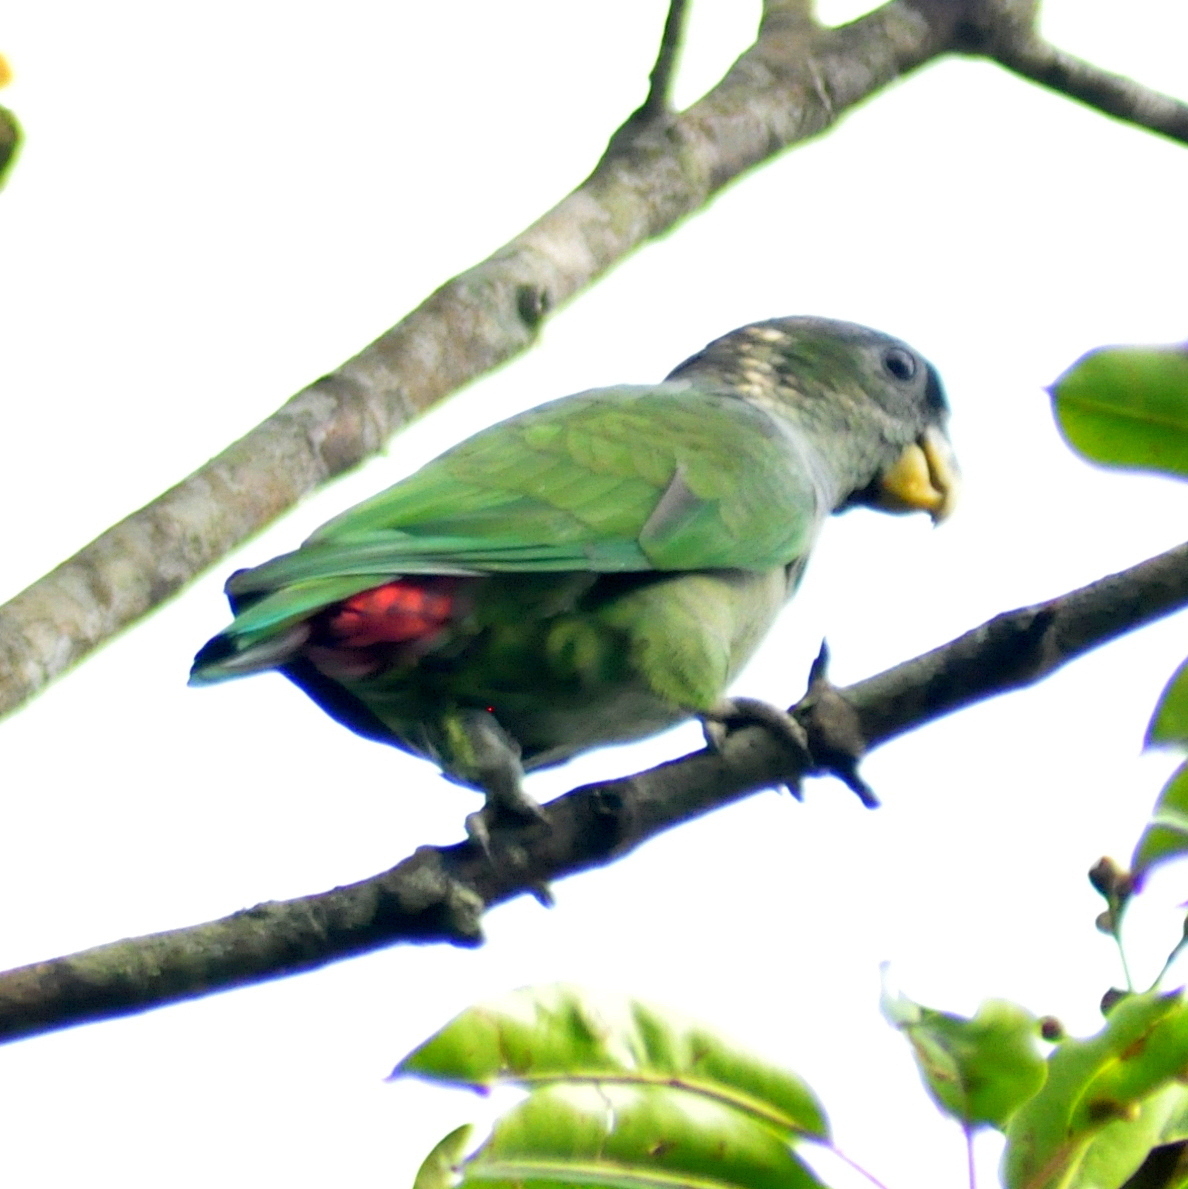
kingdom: Animalia
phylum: Chordata
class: Aves
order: Psittaciformes
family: Psittacidae
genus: Pionus
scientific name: Pionus maximiliani
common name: Scaly-headed parrot
